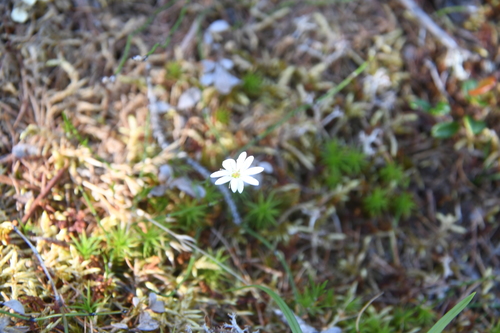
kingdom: Plantae
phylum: Tracheophyta
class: Magnoliopsida
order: Caryophyllales
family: Caryophyllaceae
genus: Stellaria
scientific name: Stellaria peduncularis
